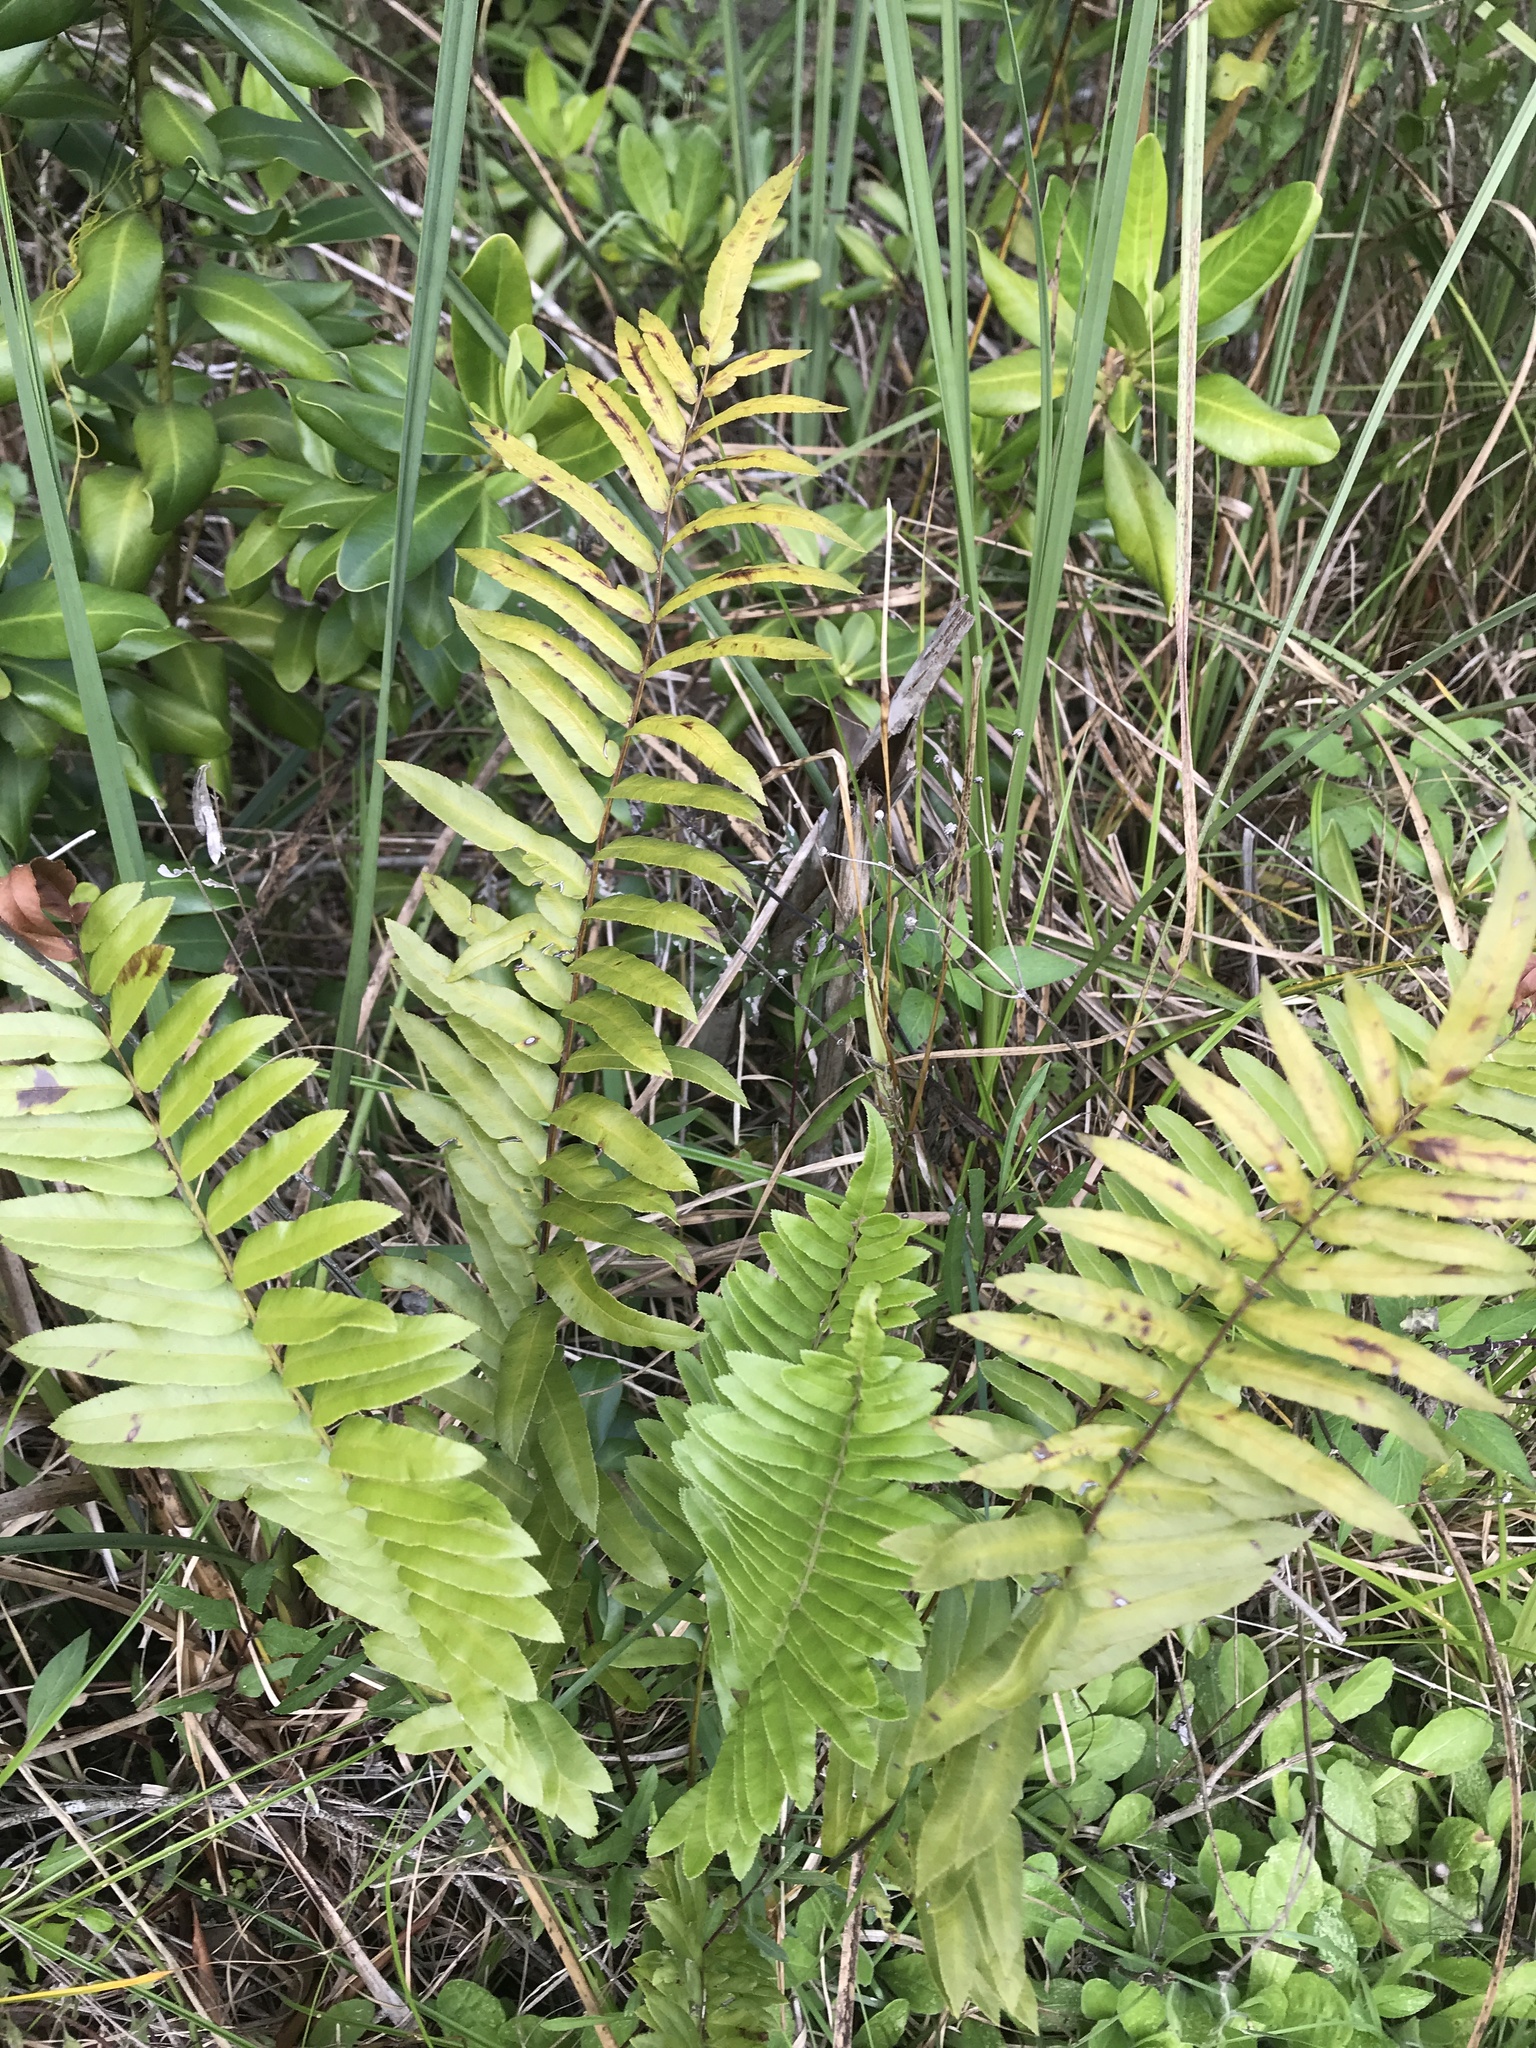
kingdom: Plantae
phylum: Tracheophyta
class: Polypodiopsida
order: Polypodiales
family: Blechnaceae
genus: Telmatoblechnum
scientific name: Telmatoblechnum serrulatum
